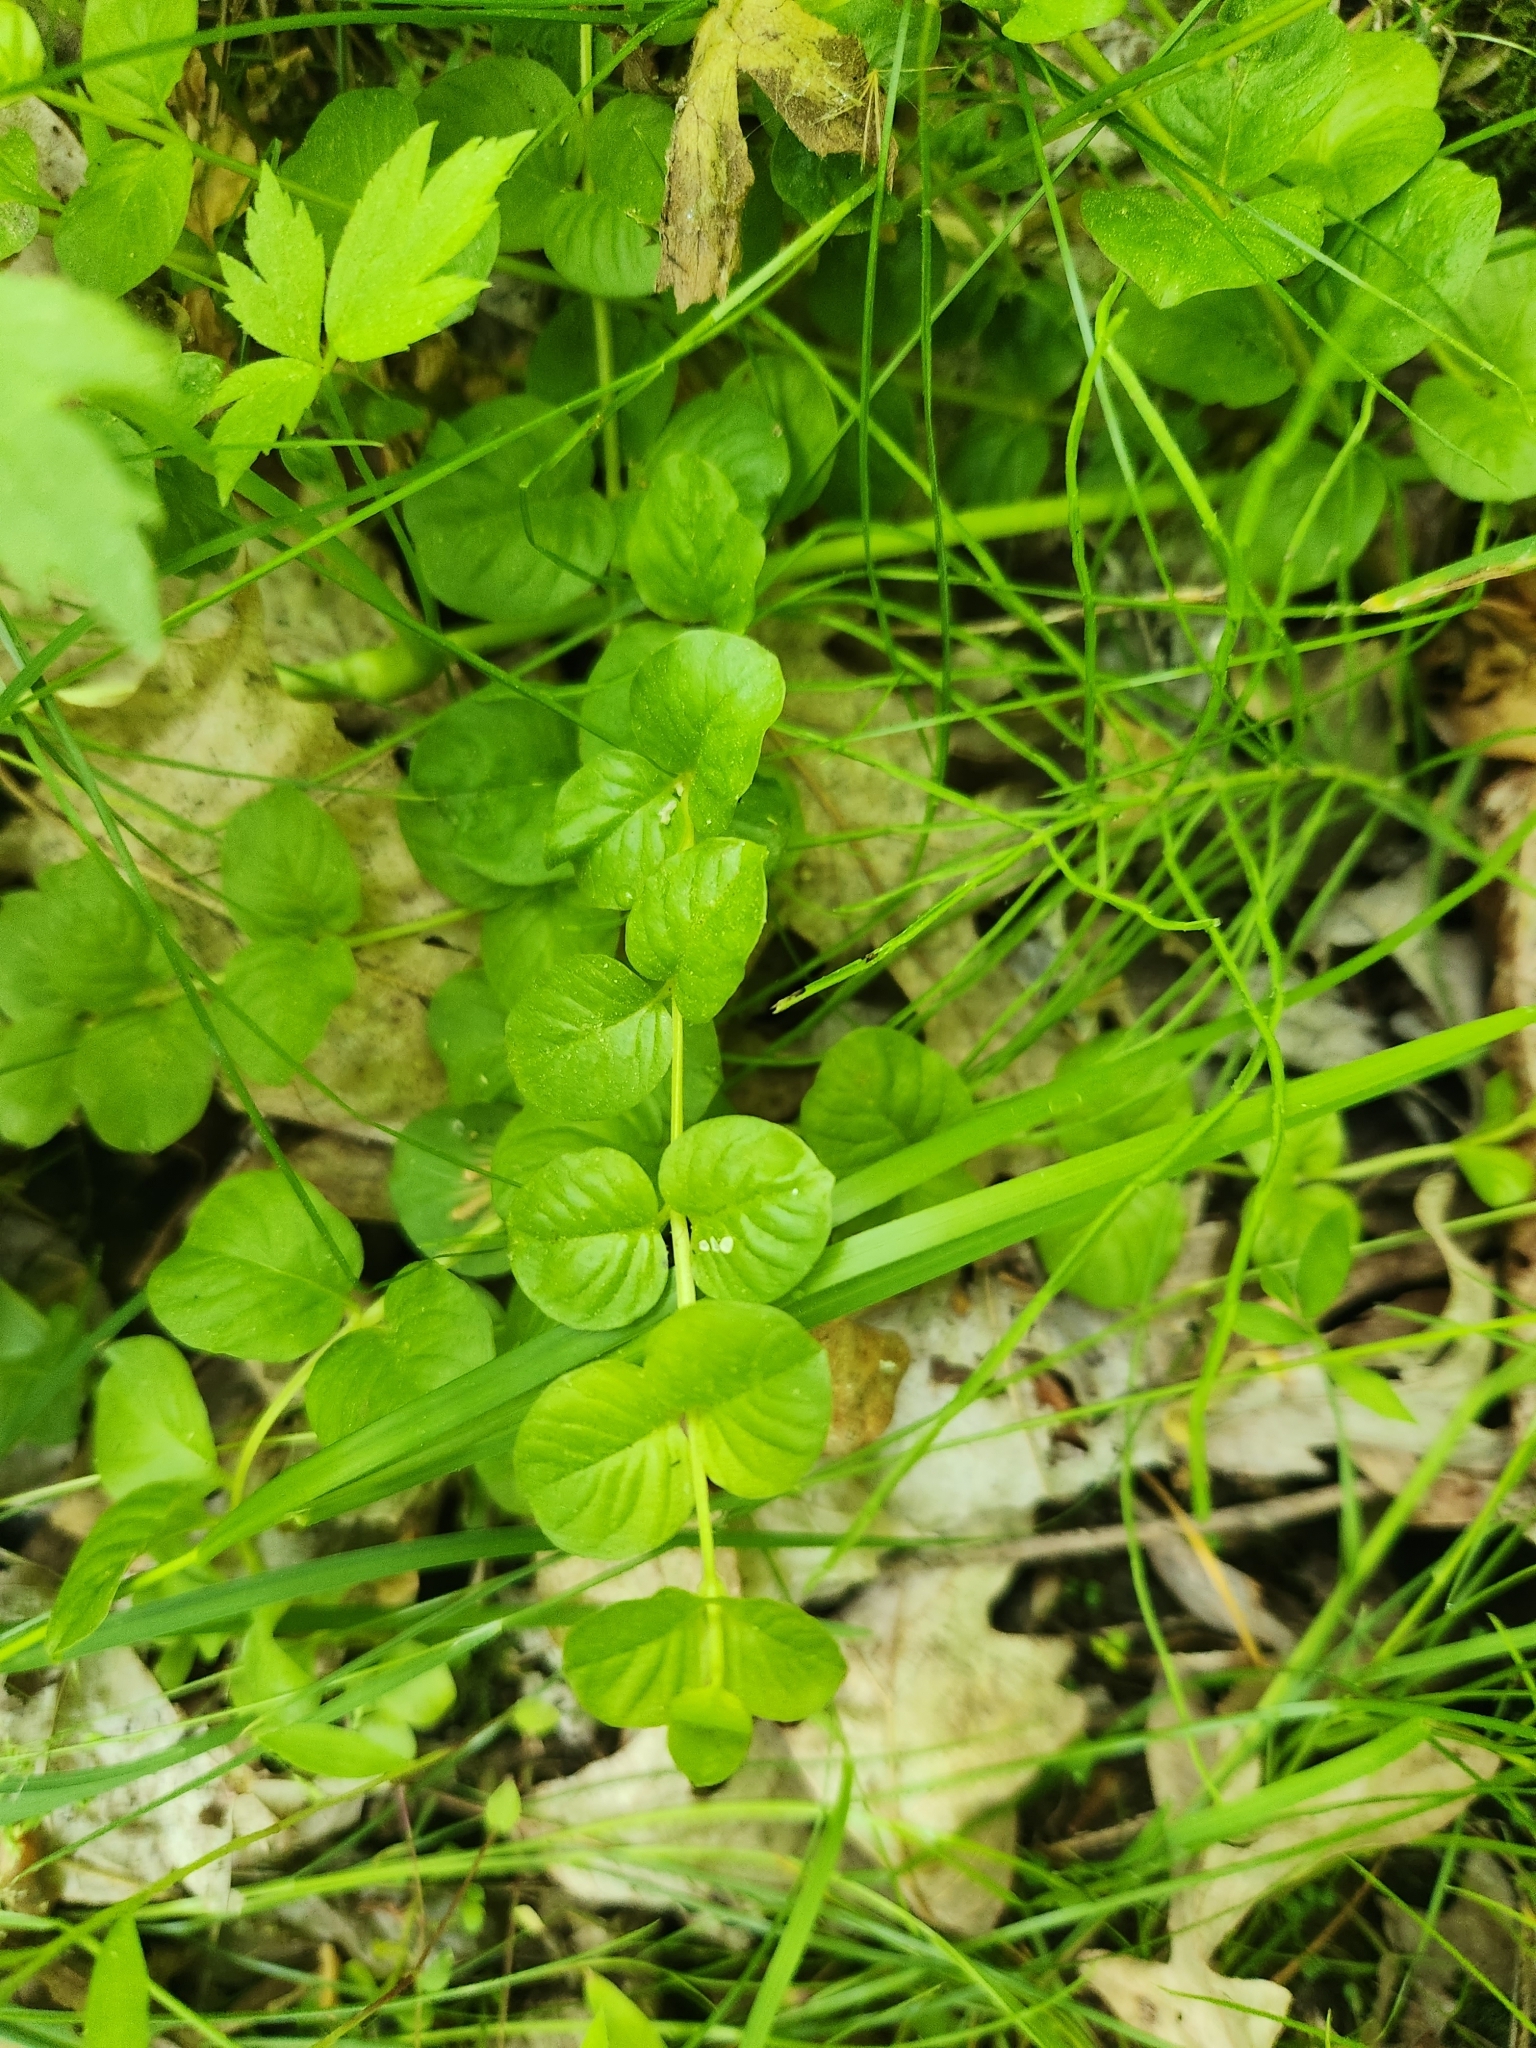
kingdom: Plantae
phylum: Tracheophyta
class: Magnoliopsida
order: Ericales
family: Primulaceae
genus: Lysimachia
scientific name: Lysimachia nummularia
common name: Moneywort
